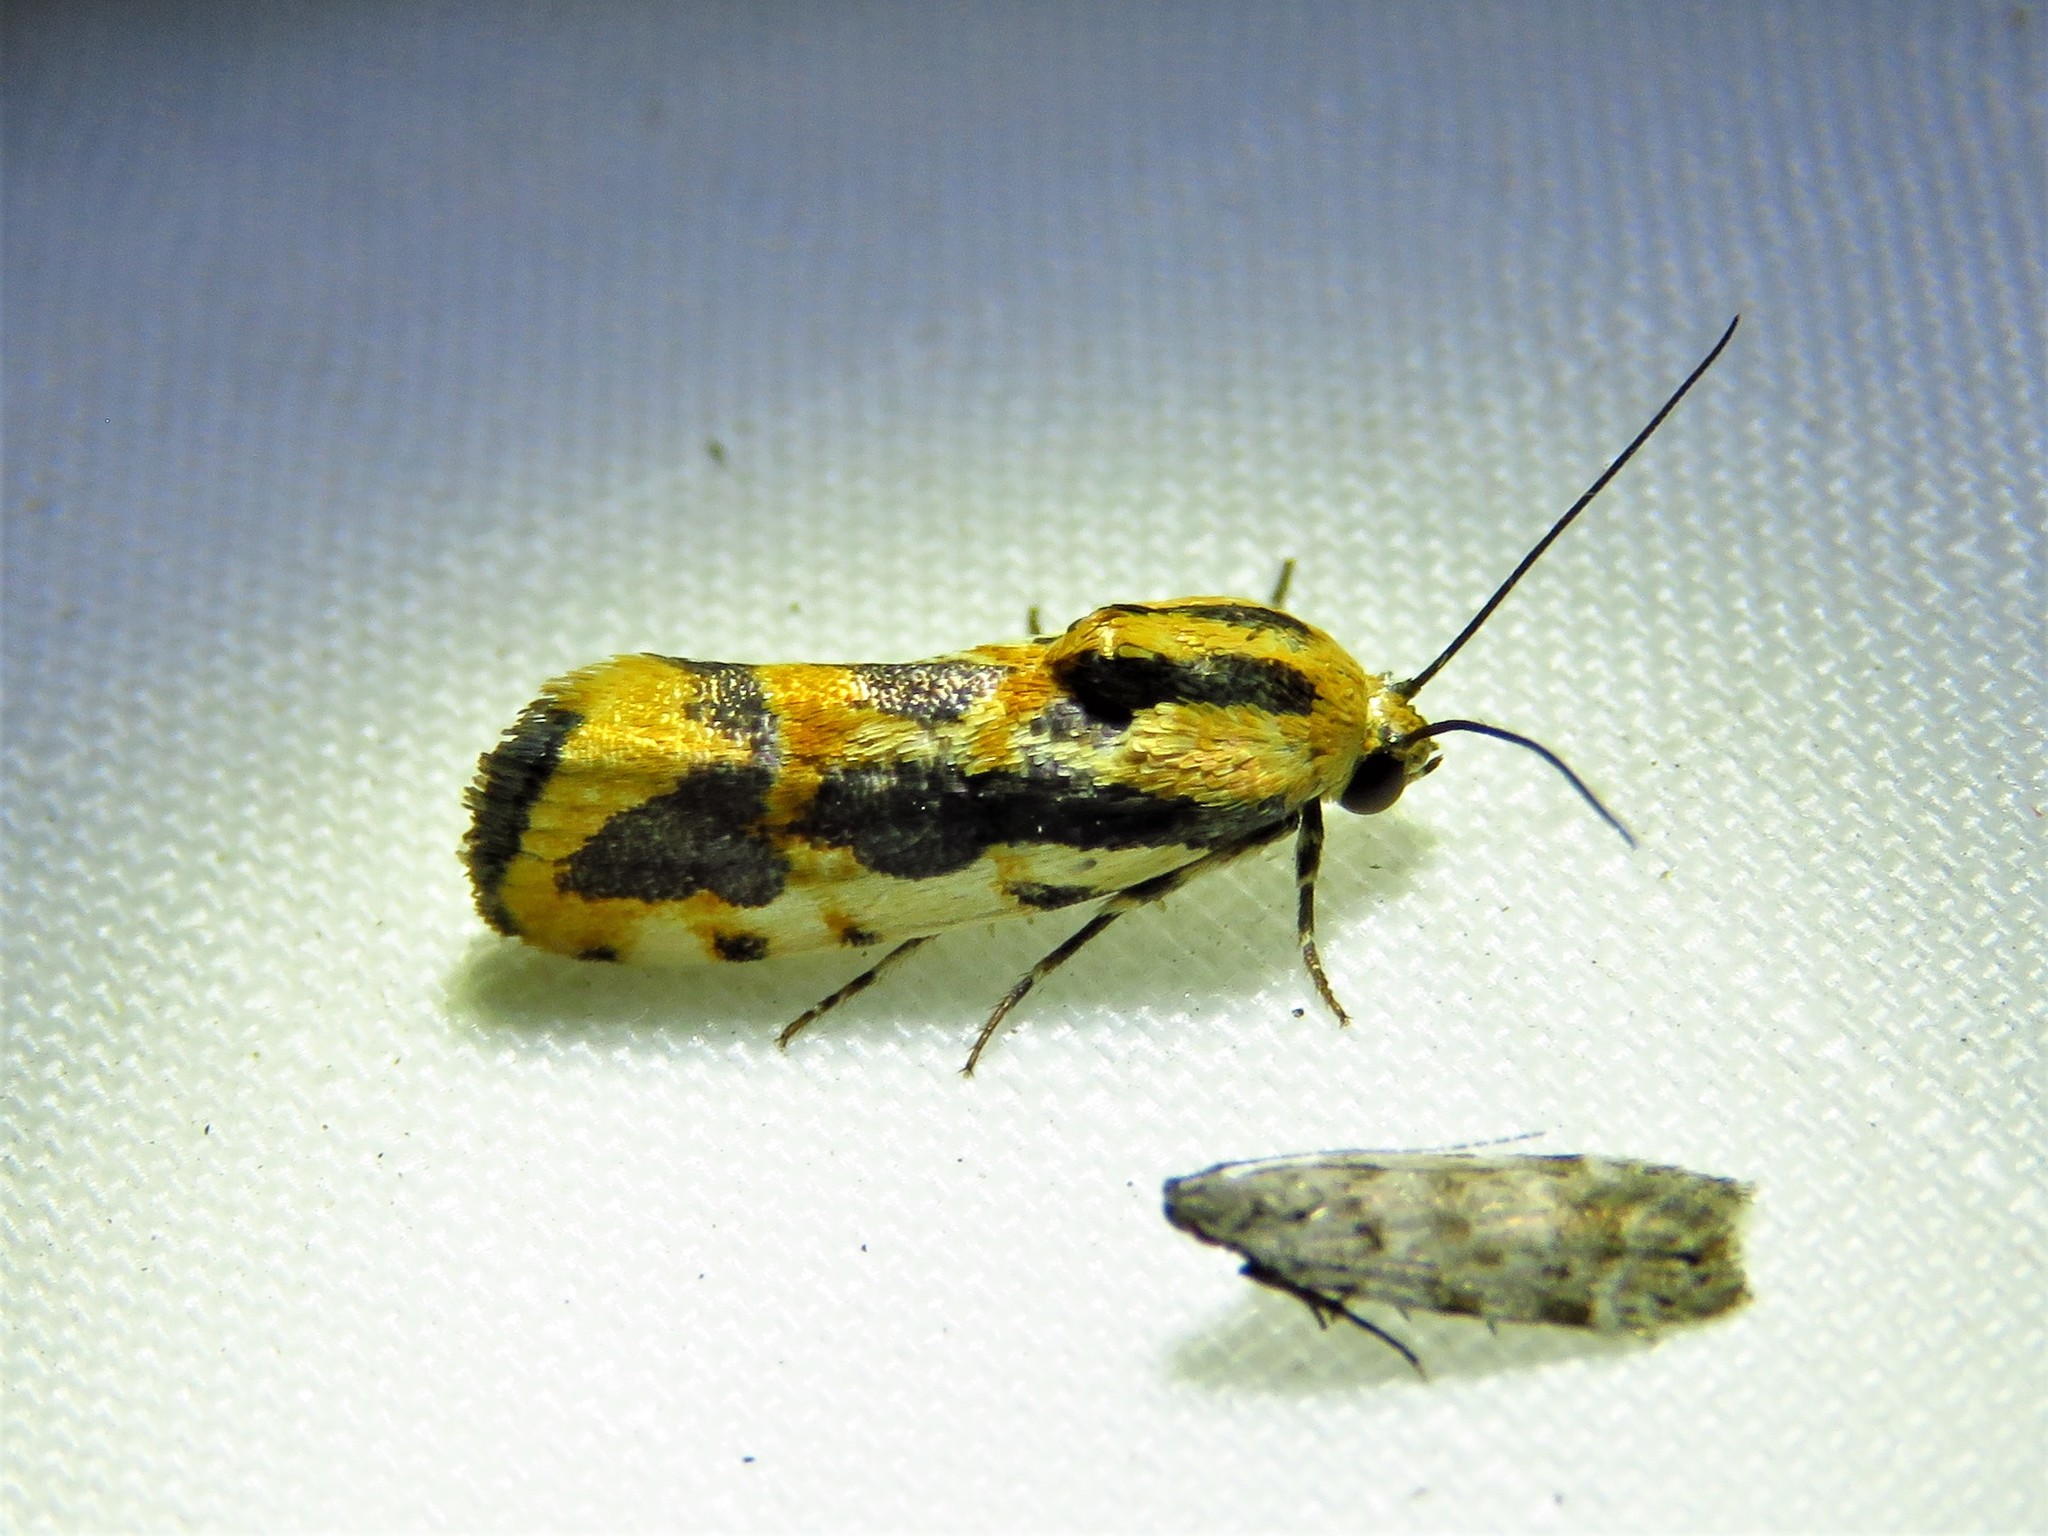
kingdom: Animalia
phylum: Arthropoda
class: Insecta
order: Lepidoptera
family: Noctuidae
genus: Acontia
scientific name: Acontia leo
